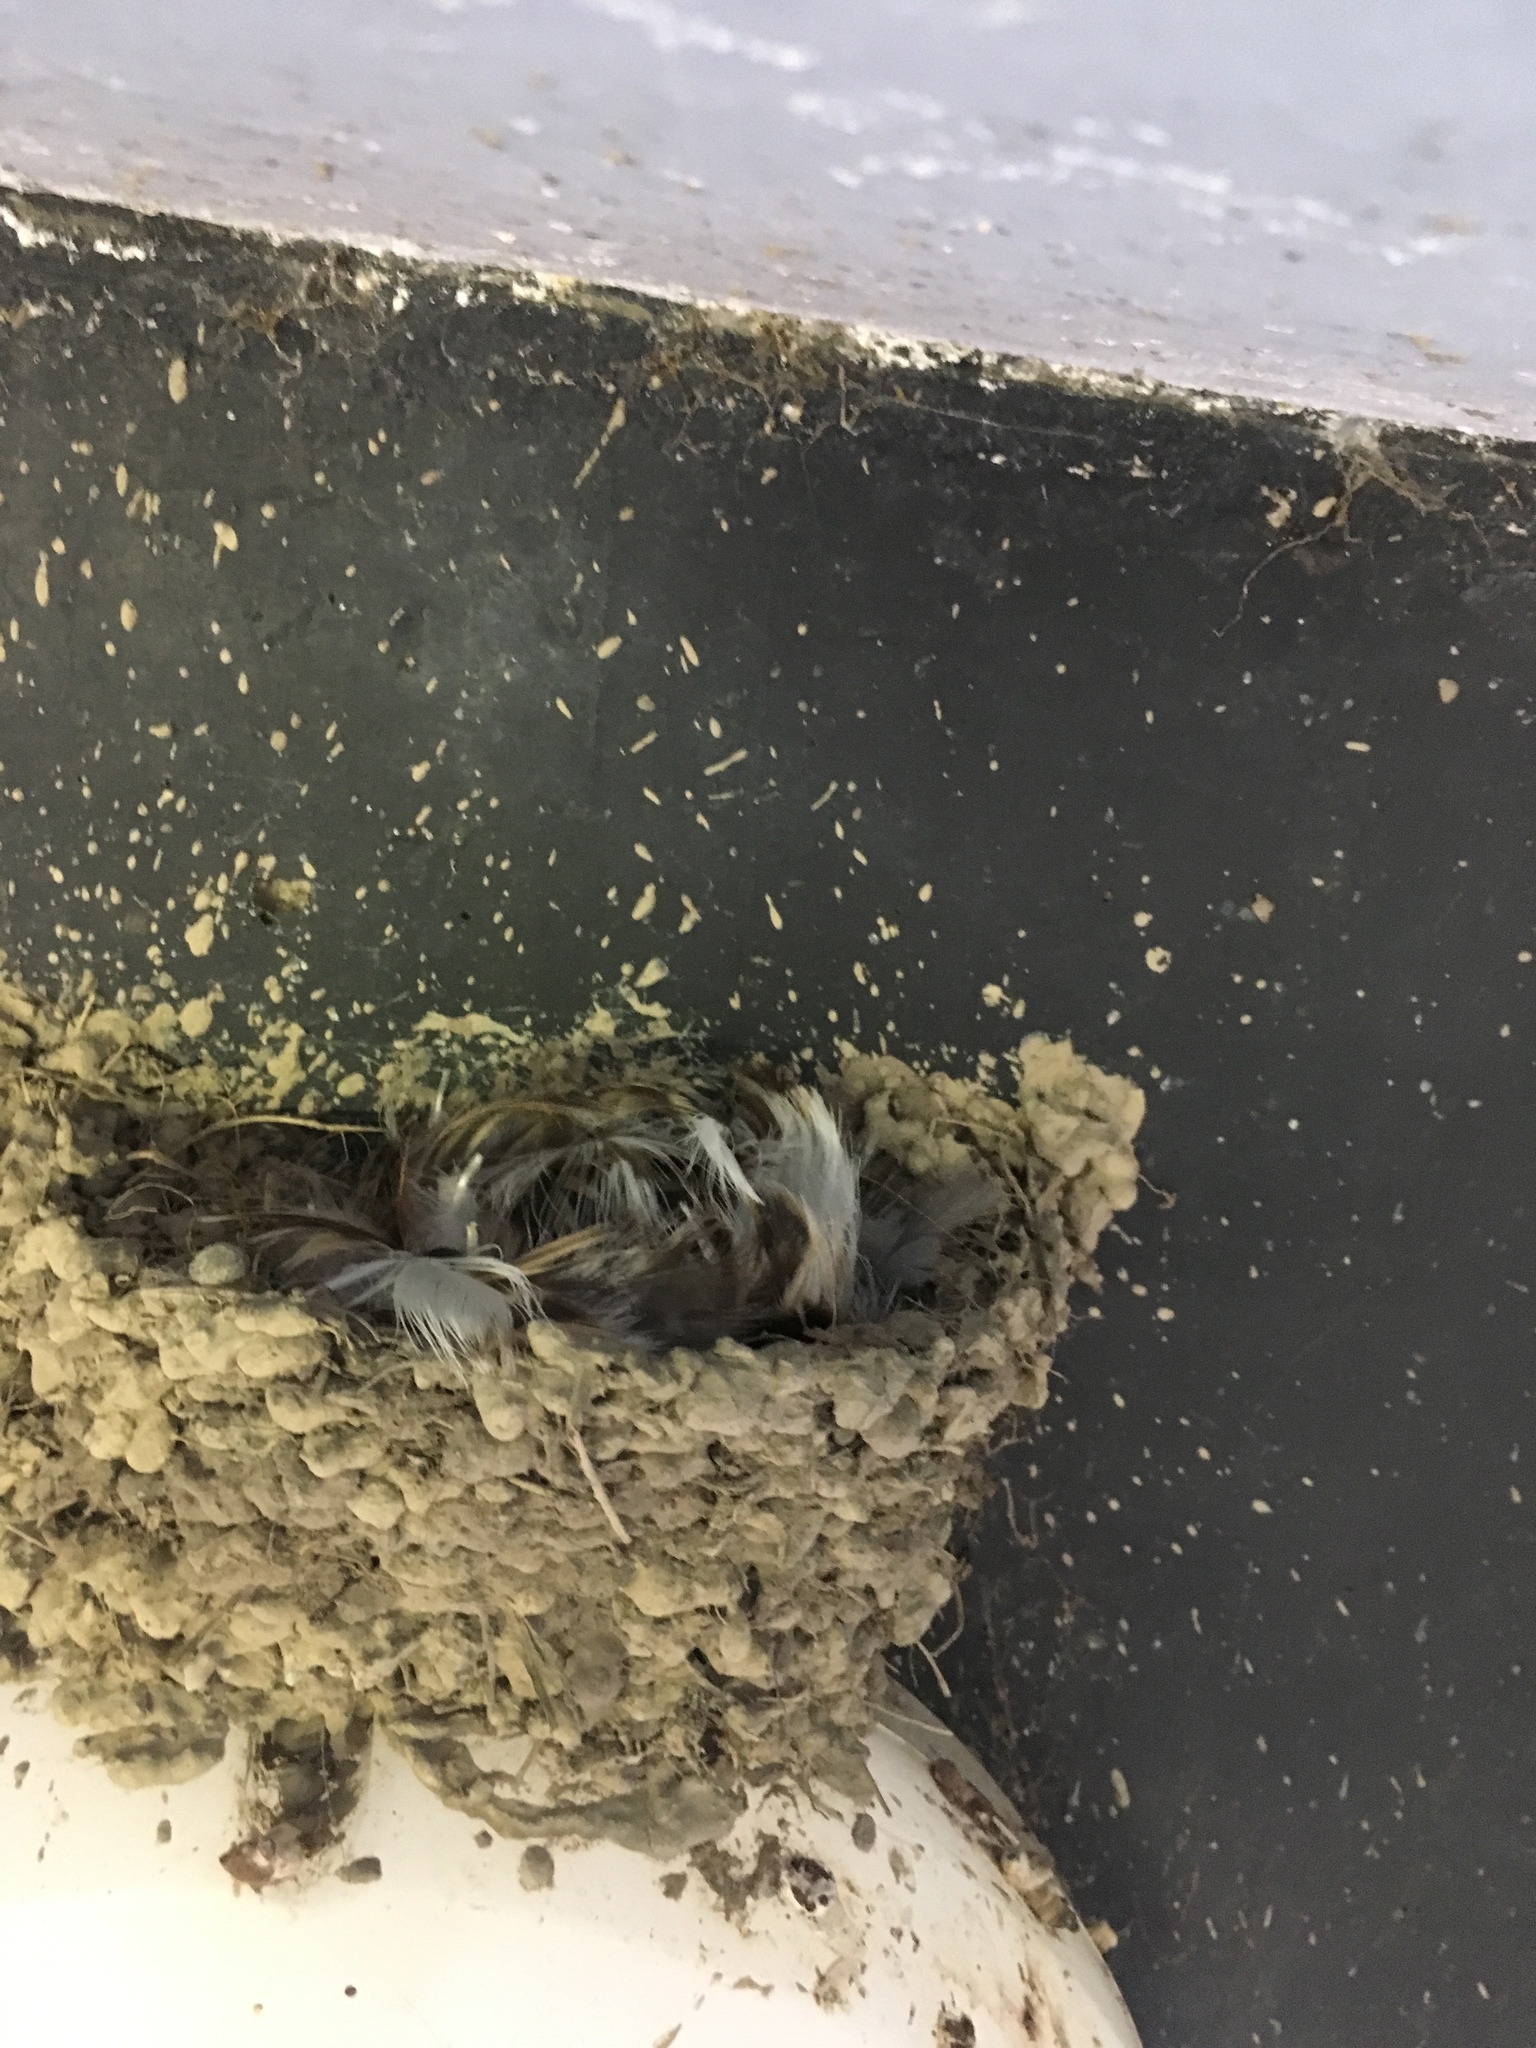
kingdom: Animalia
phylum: Chordata
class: Aves
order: Passeriformes
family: Hirundinidae
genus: Hirundo
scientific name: Hirundo neoxena
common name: Welcome swallow
